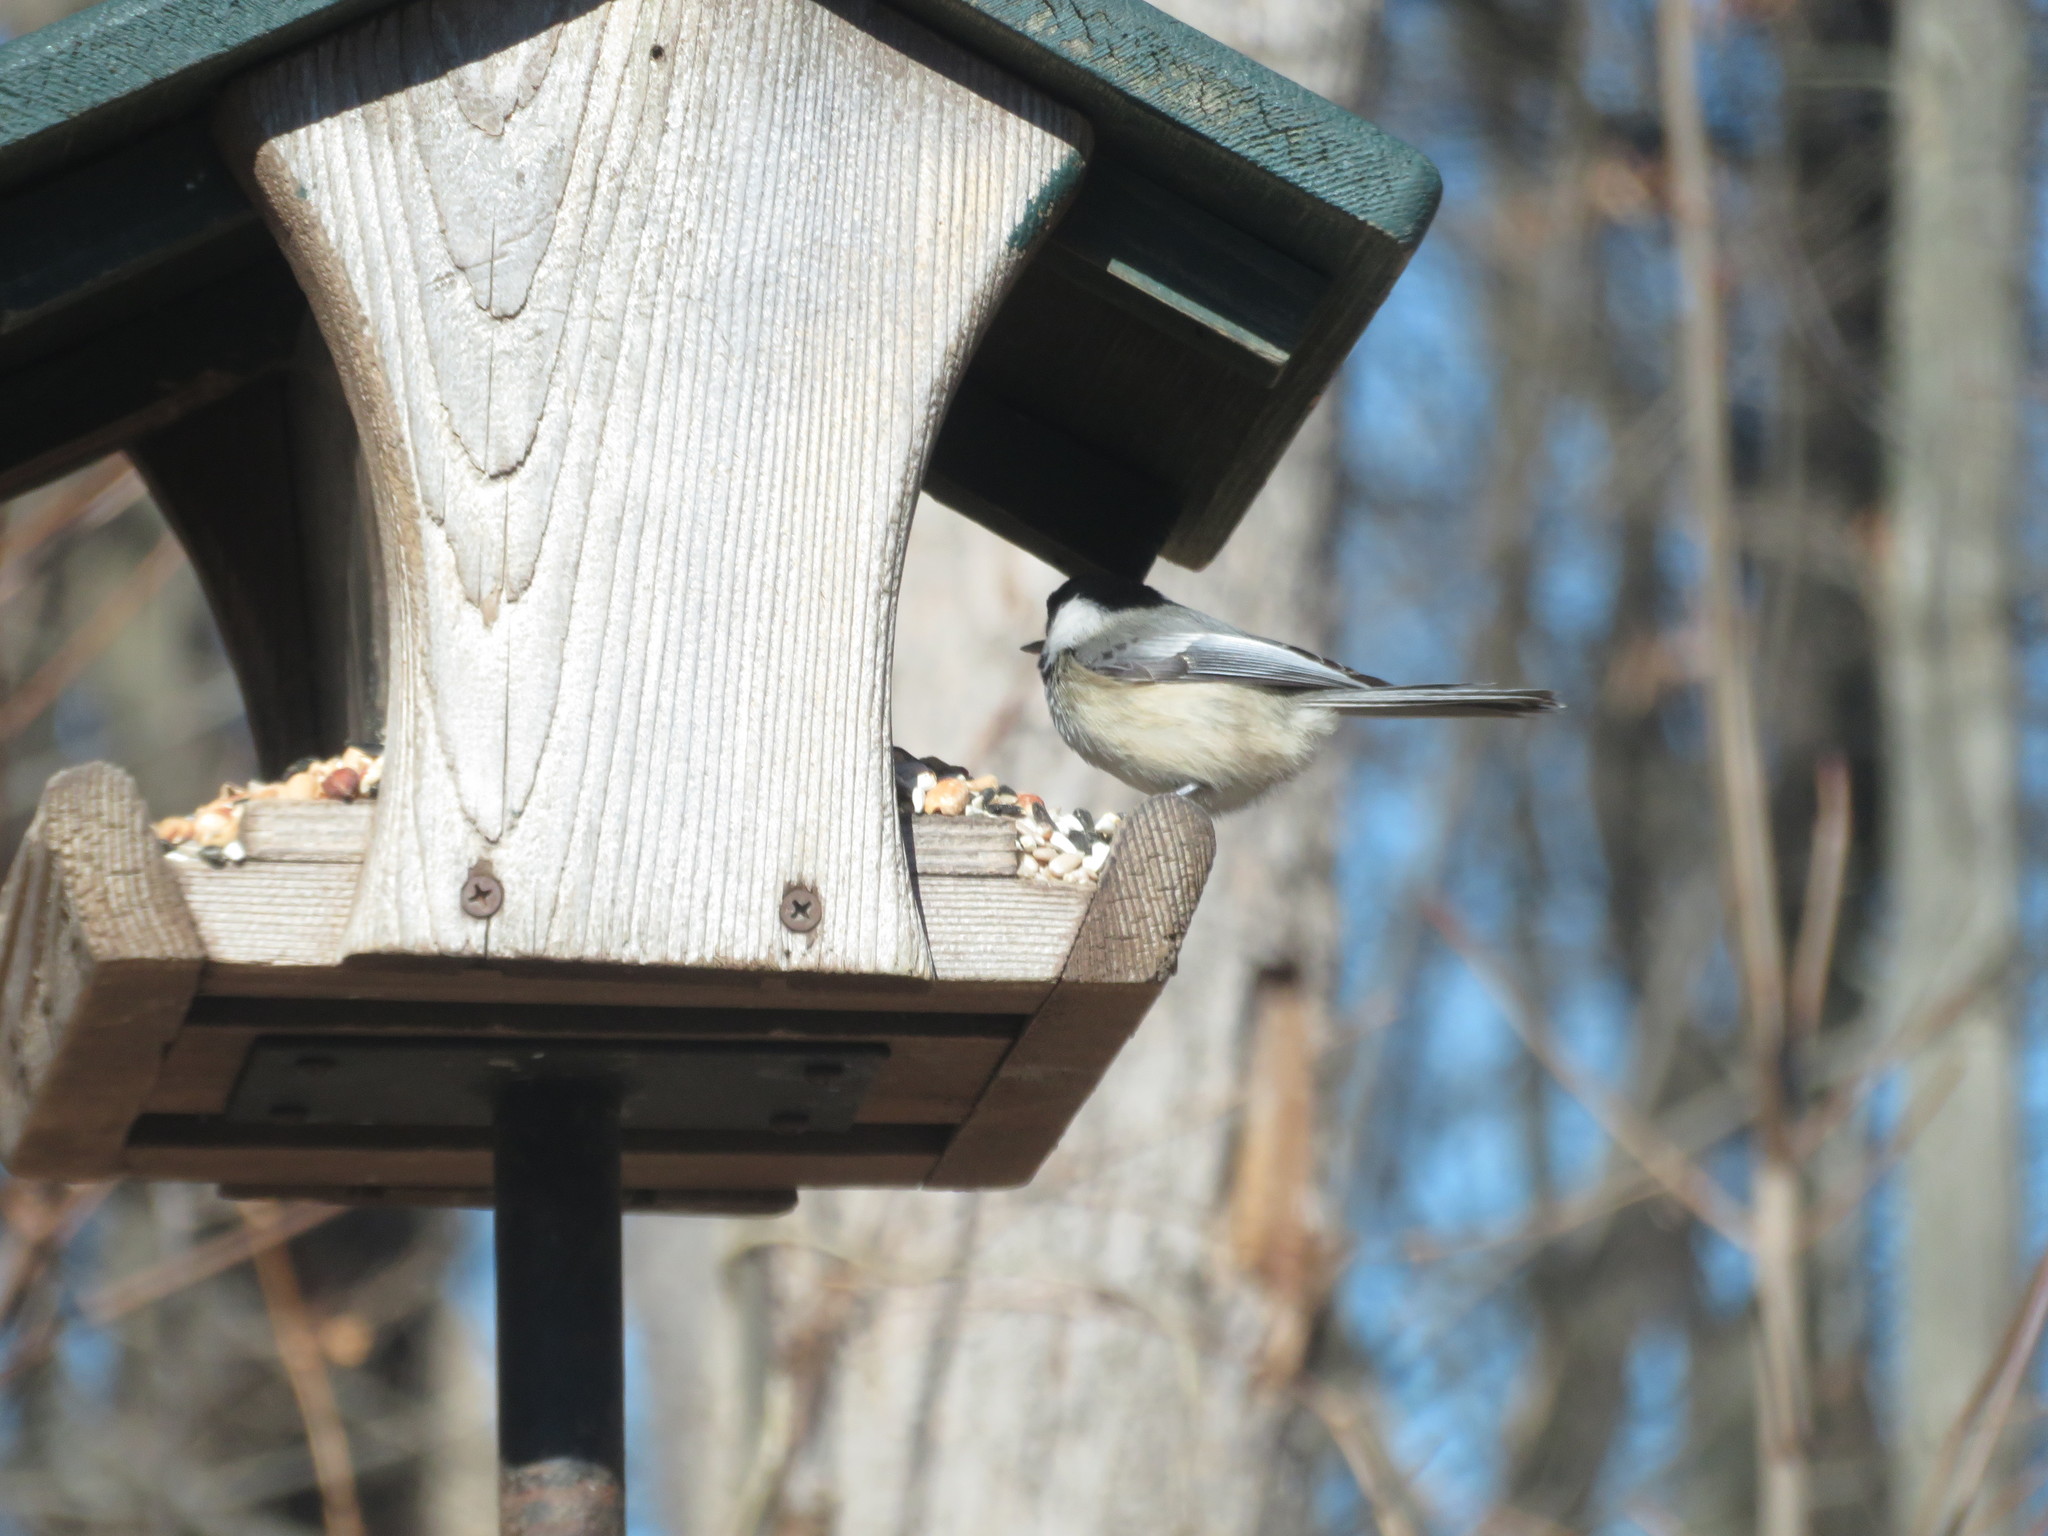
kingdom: Animalia
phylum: Chordata
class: Aves
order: Passeriformes
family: Paridae
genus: Poecile
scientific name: Poecile atricapillus
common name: Black-capped chickadee
